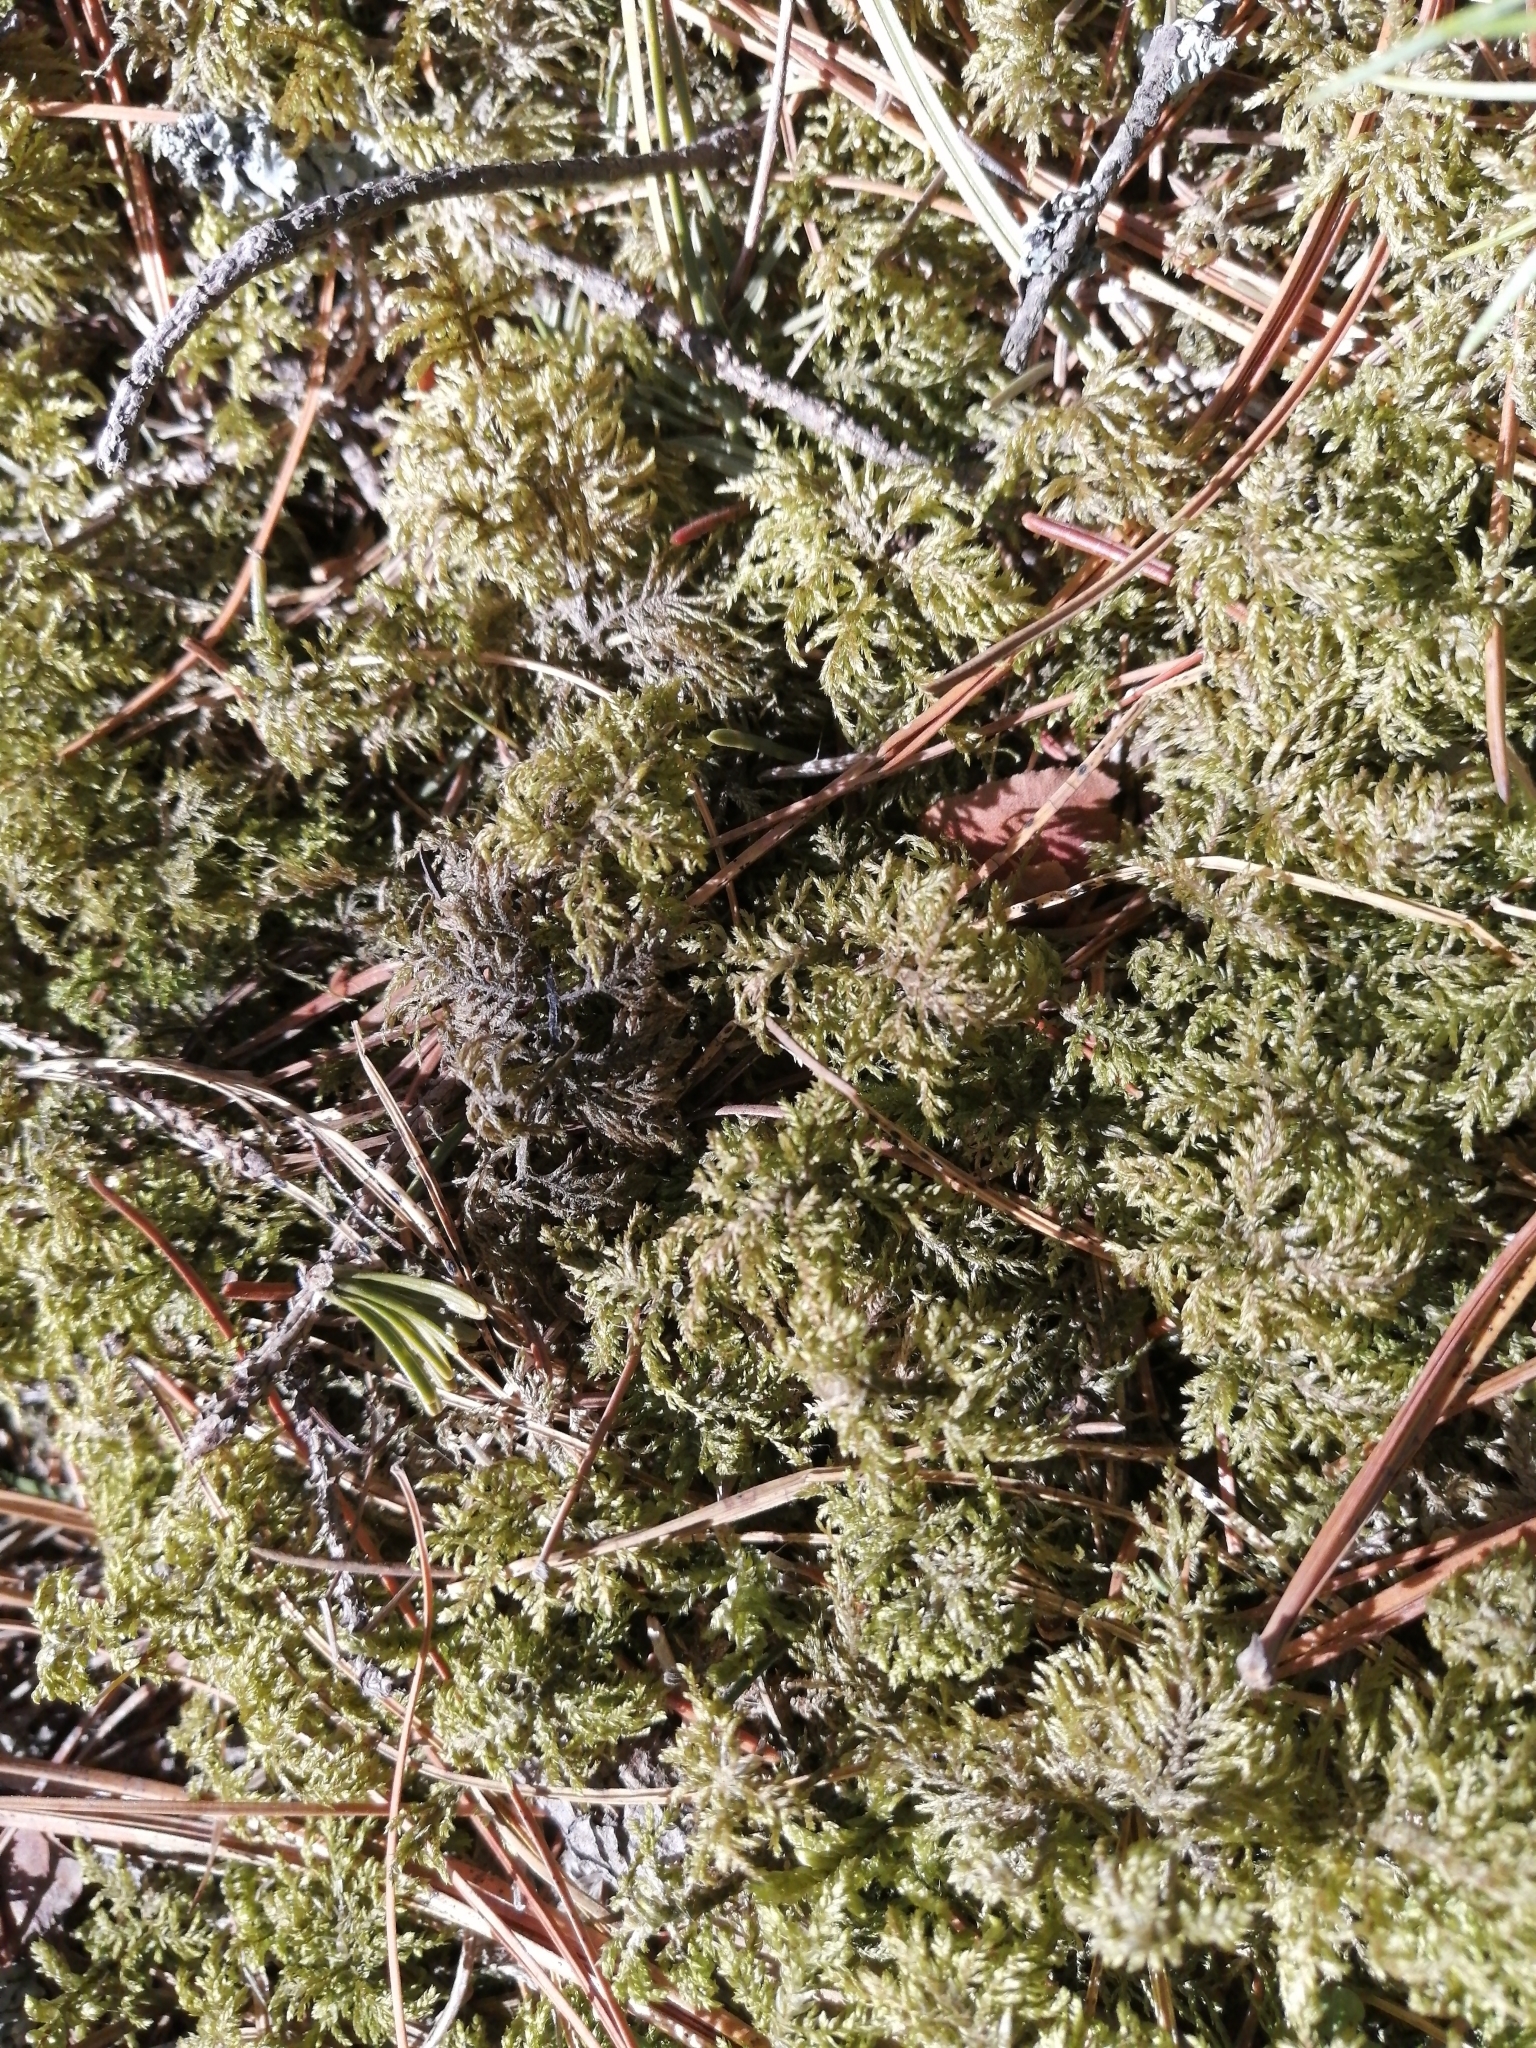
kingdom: Plantae
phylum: Bryophyta
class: Bryopsida
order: Hypnales
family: Hylocomiaceae
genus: Hylocomium
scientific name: Hylocomium splendens
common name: Stairstep moss
